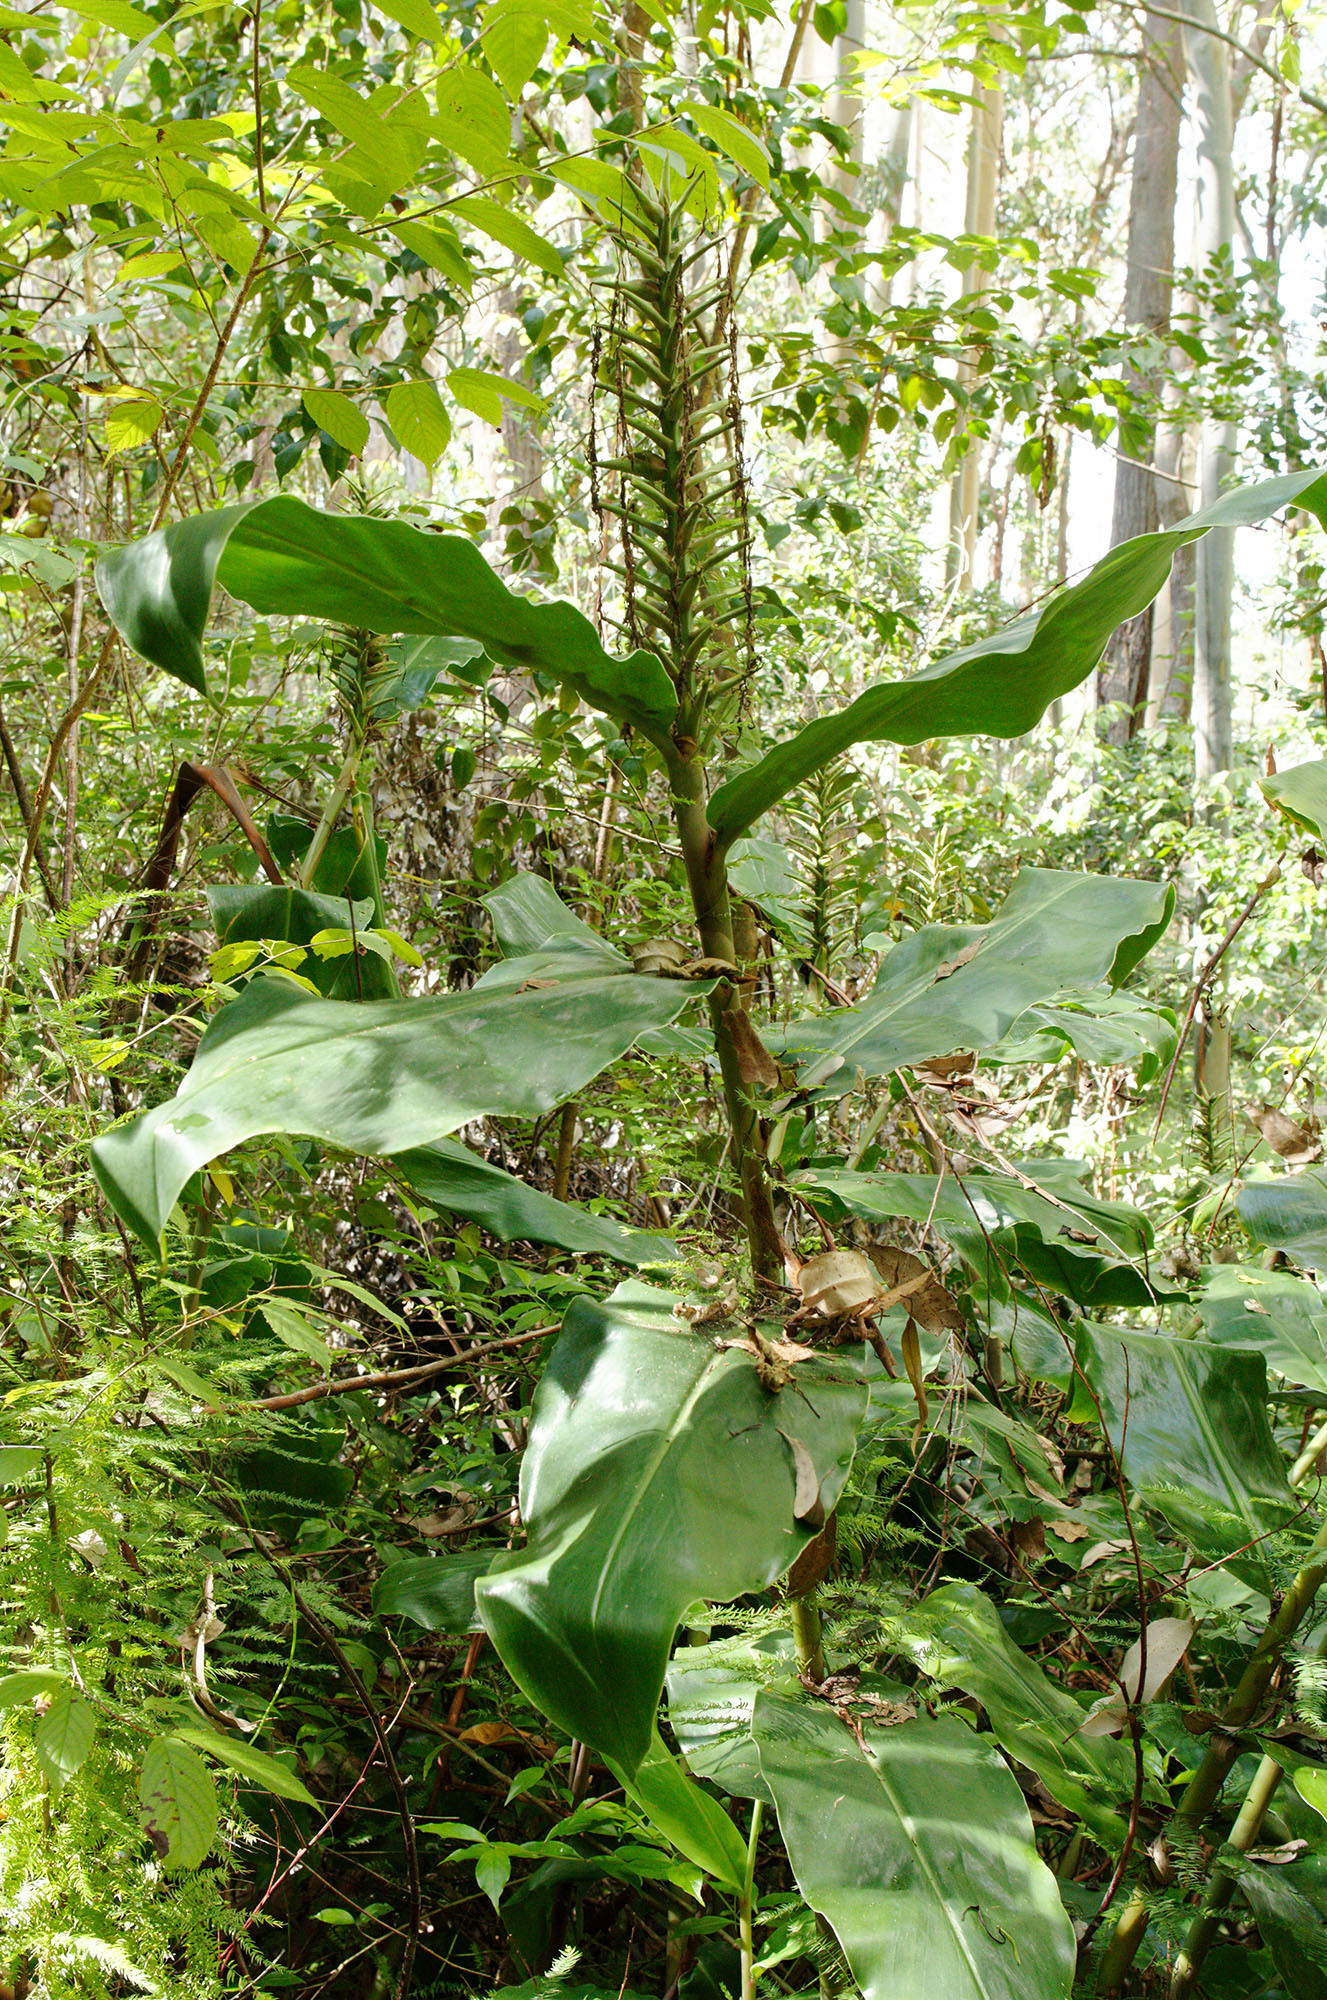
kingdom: Plantae
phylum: Tracheophyta
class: Liliopsida
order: Zingiberales
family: Zingiberaceae
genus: Hedychium
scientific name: Hedychium gardnerianum
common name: Himalayan ginger
